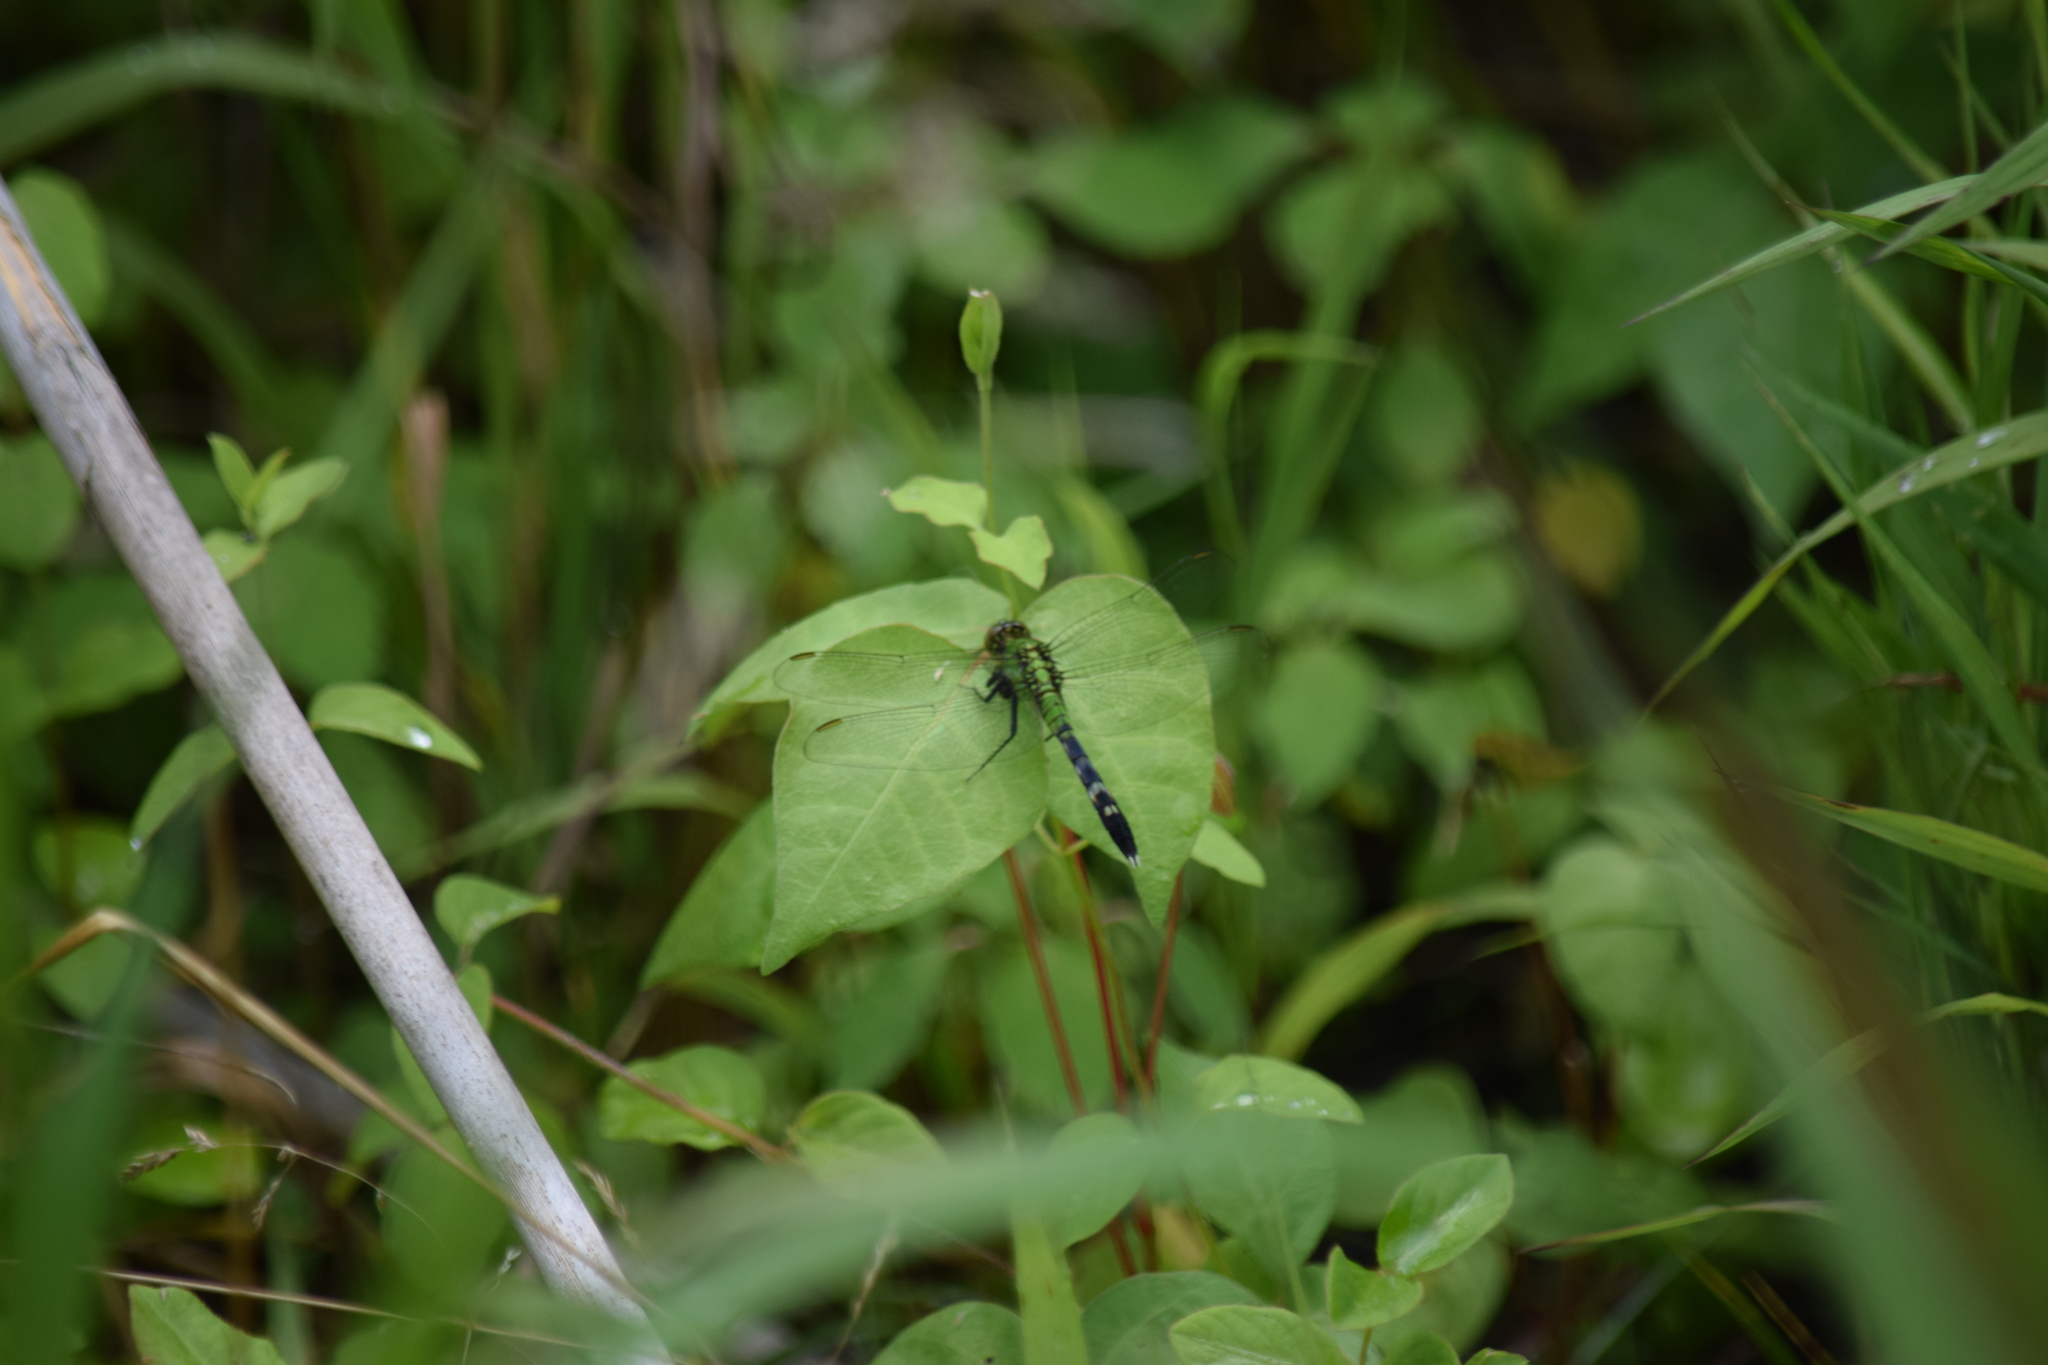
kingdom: Animalia
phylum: Arthropoda
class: Insecta
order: Odonata
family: Libellulidae
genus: Erythemis
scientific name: Erythemis simplicicollis
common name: Eastern pondhawk
